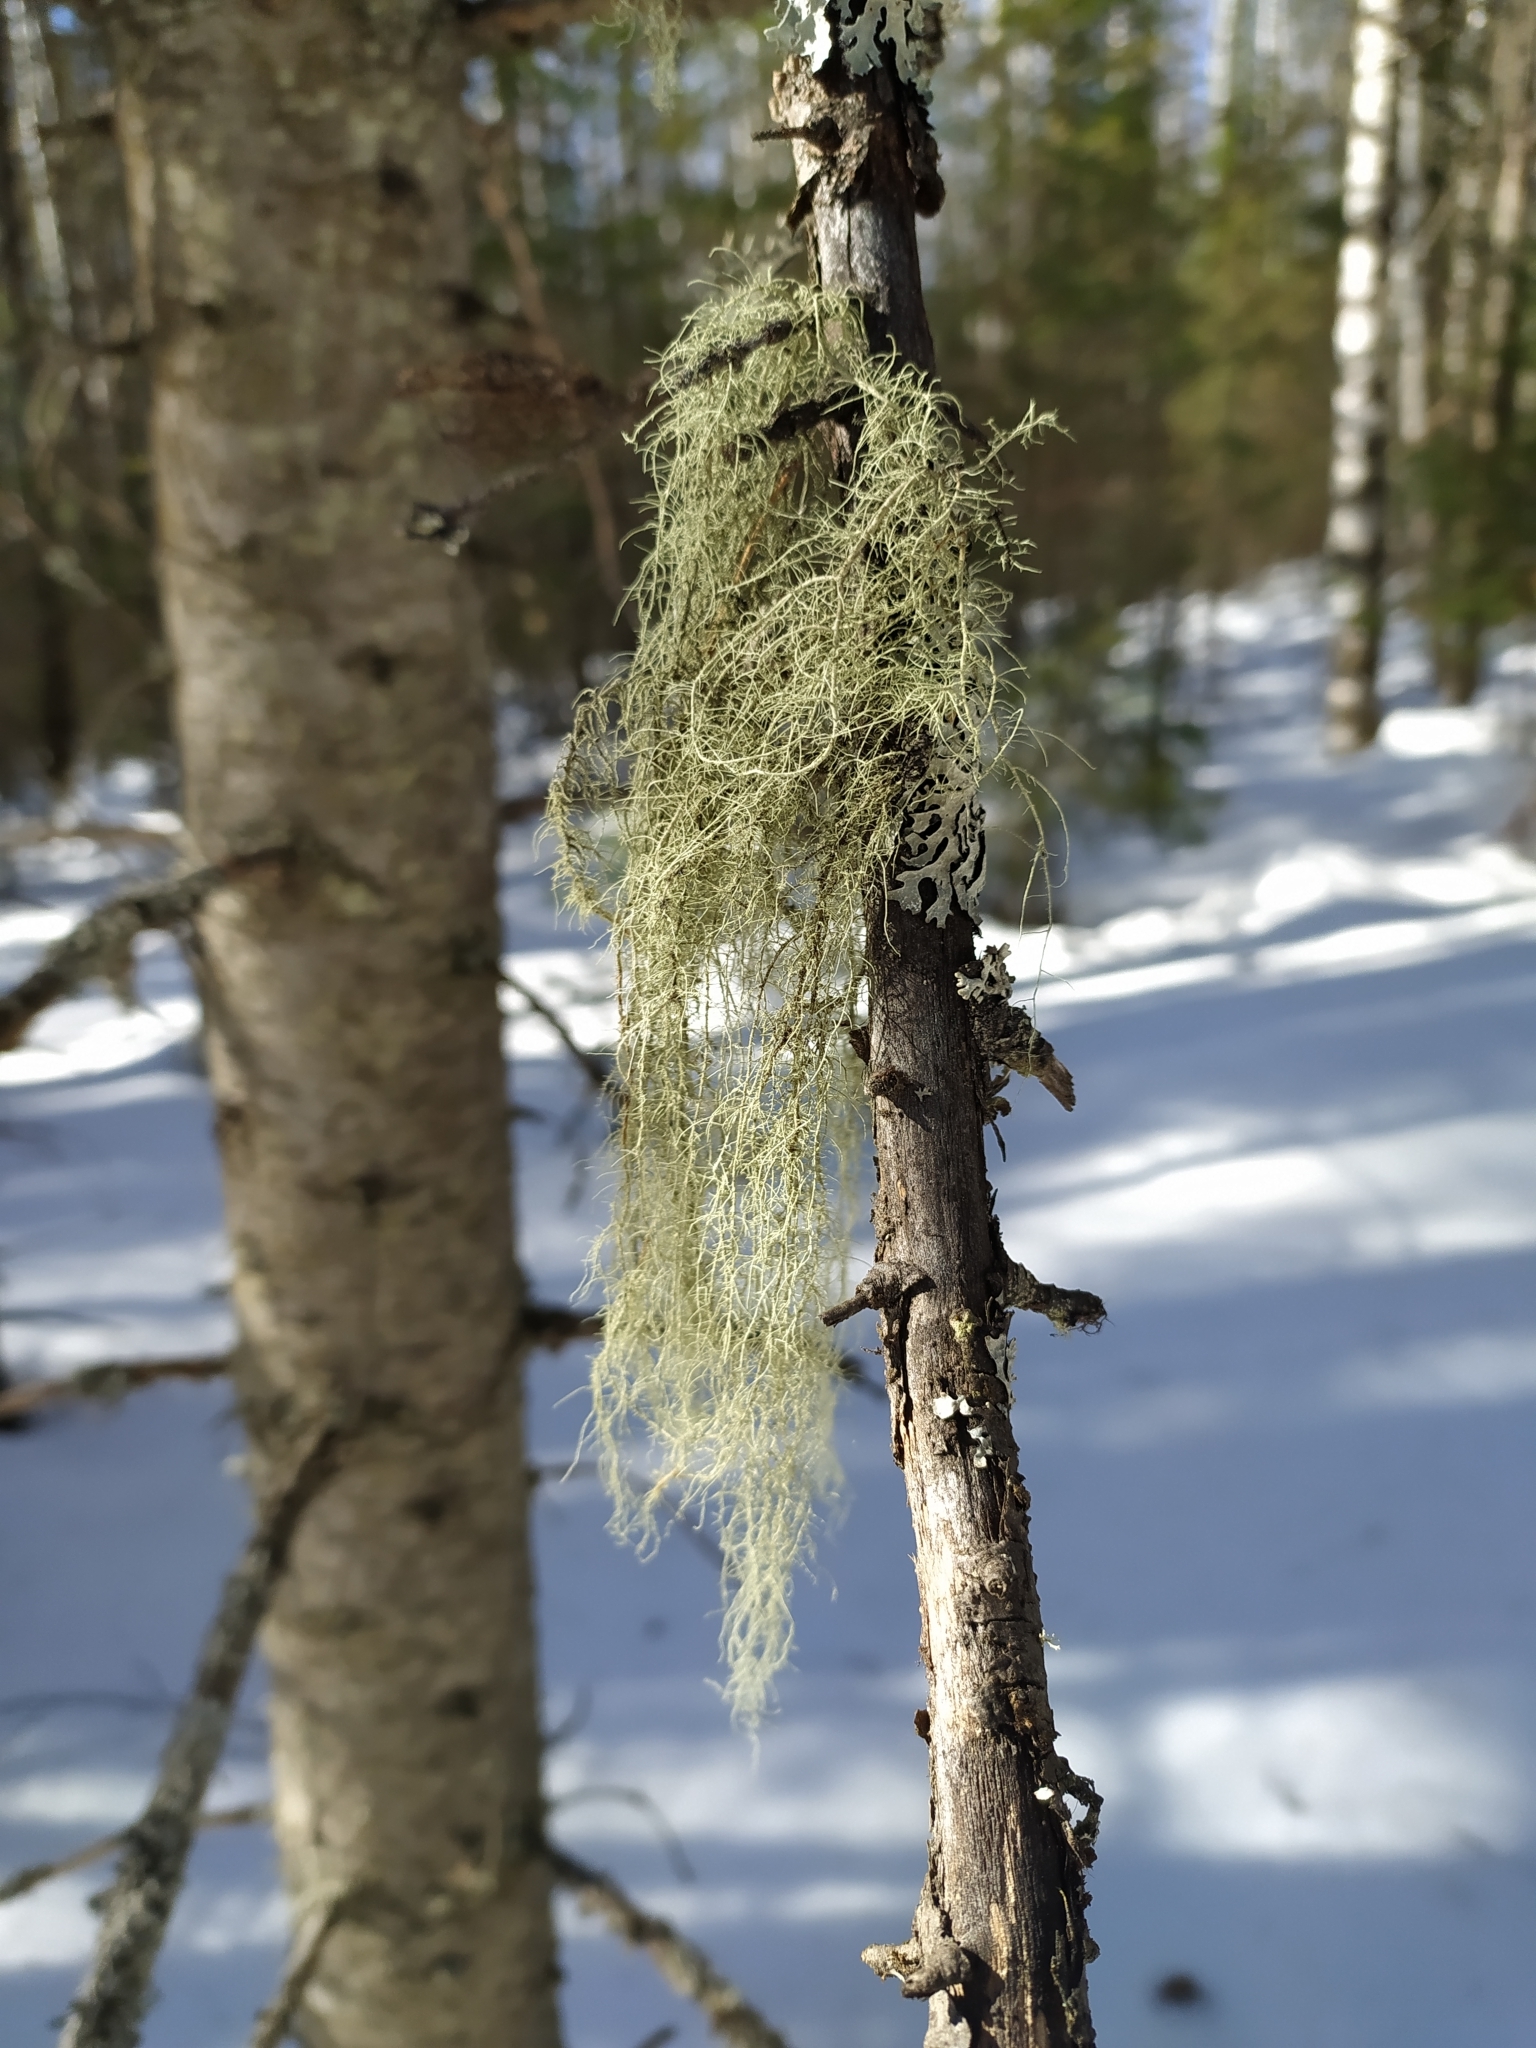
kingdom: Fungi
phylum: Ascomycota
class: Lecanoromycetes
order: Lecanorales
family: Parmeliaceae
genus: Usnea
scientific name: Usnea dasopoga
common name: Fishbone beard lichen
